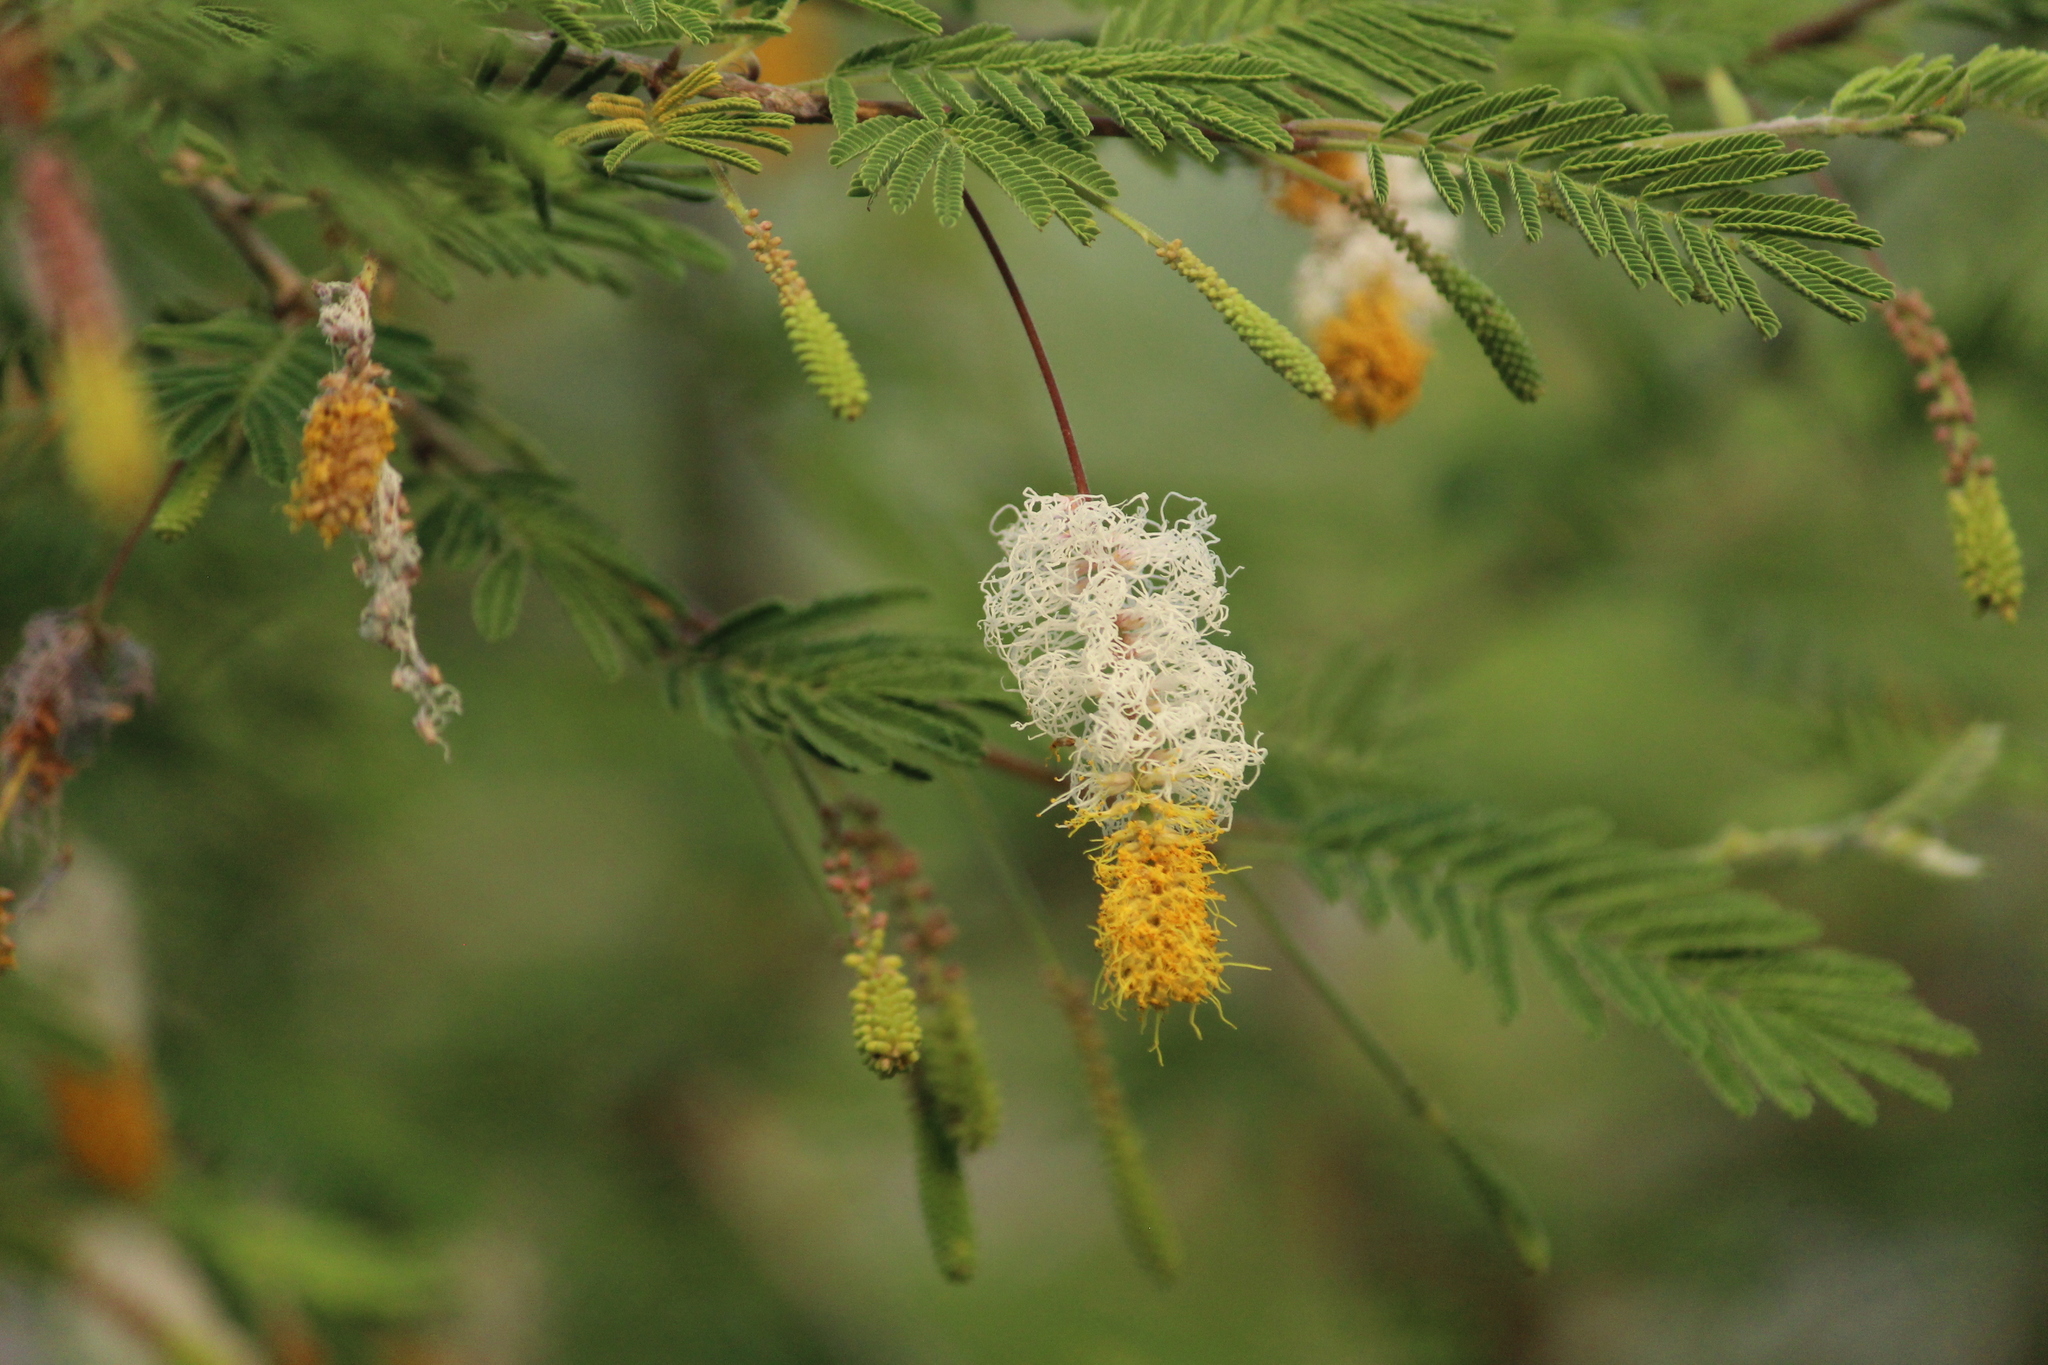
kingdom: Plantae
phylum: Tracheophyta
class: Magnoliopsida
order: Fabales
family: Fabaceae
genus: Dichrostachys
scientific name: Dichrostachys cinerea
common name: Sicklebush
